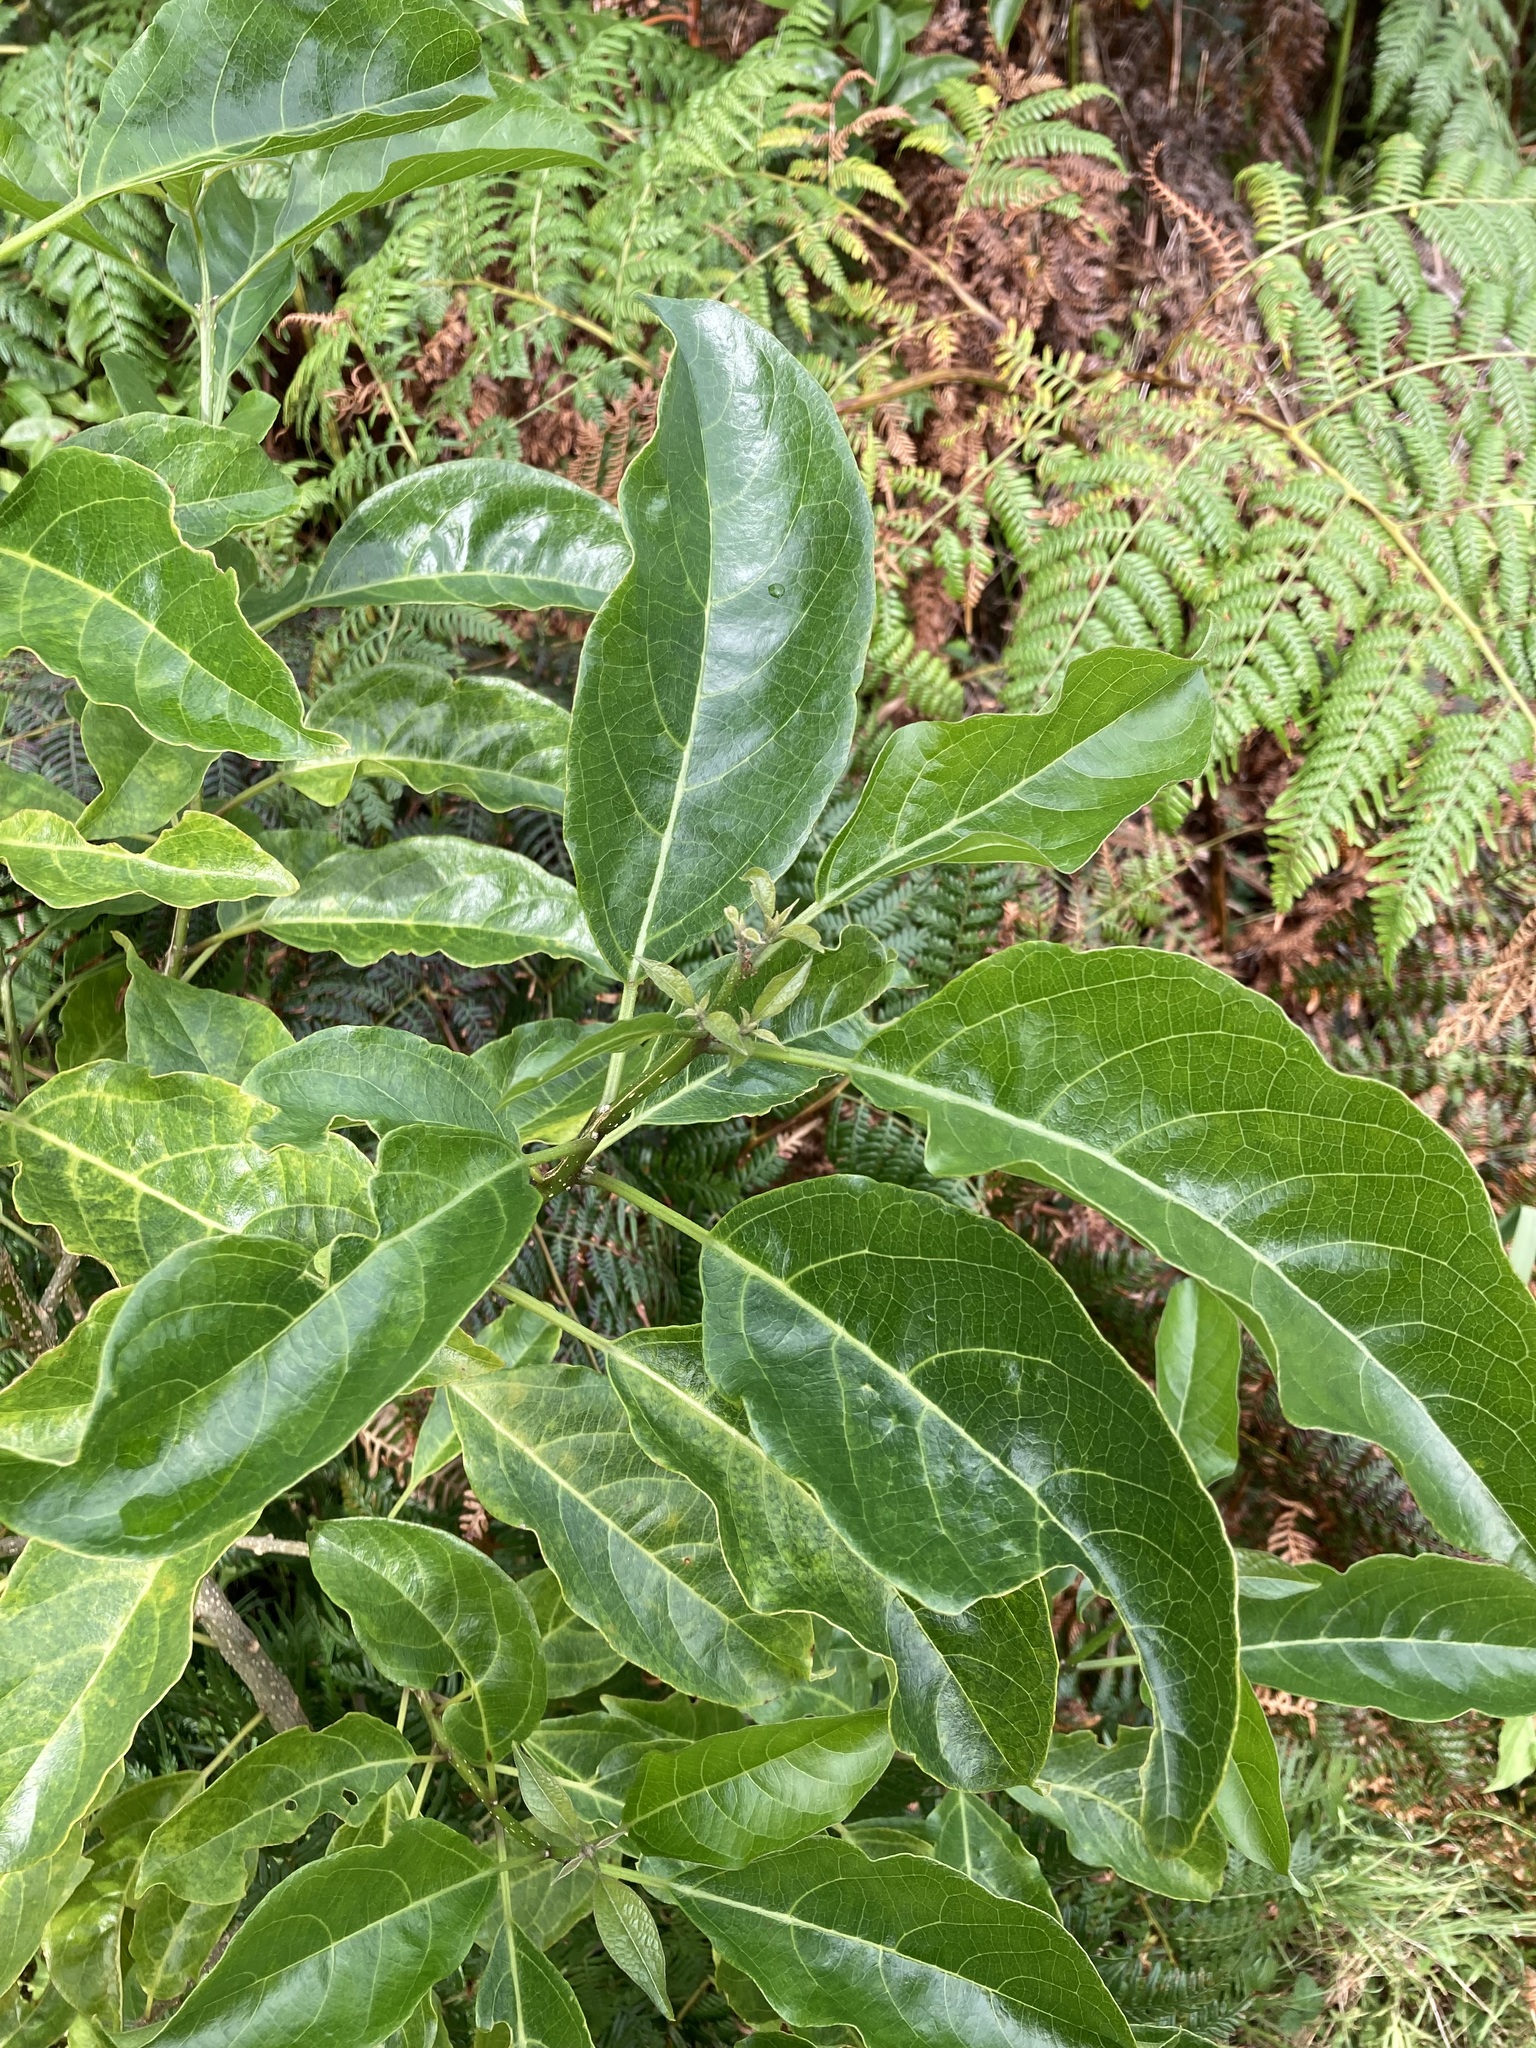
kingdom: Plantae
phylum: Tracheophyta
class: Magnoliopsida
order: Lamiales
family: Lamiaceae
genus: Clerodendrum
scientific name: Clerodendrum floribundum
